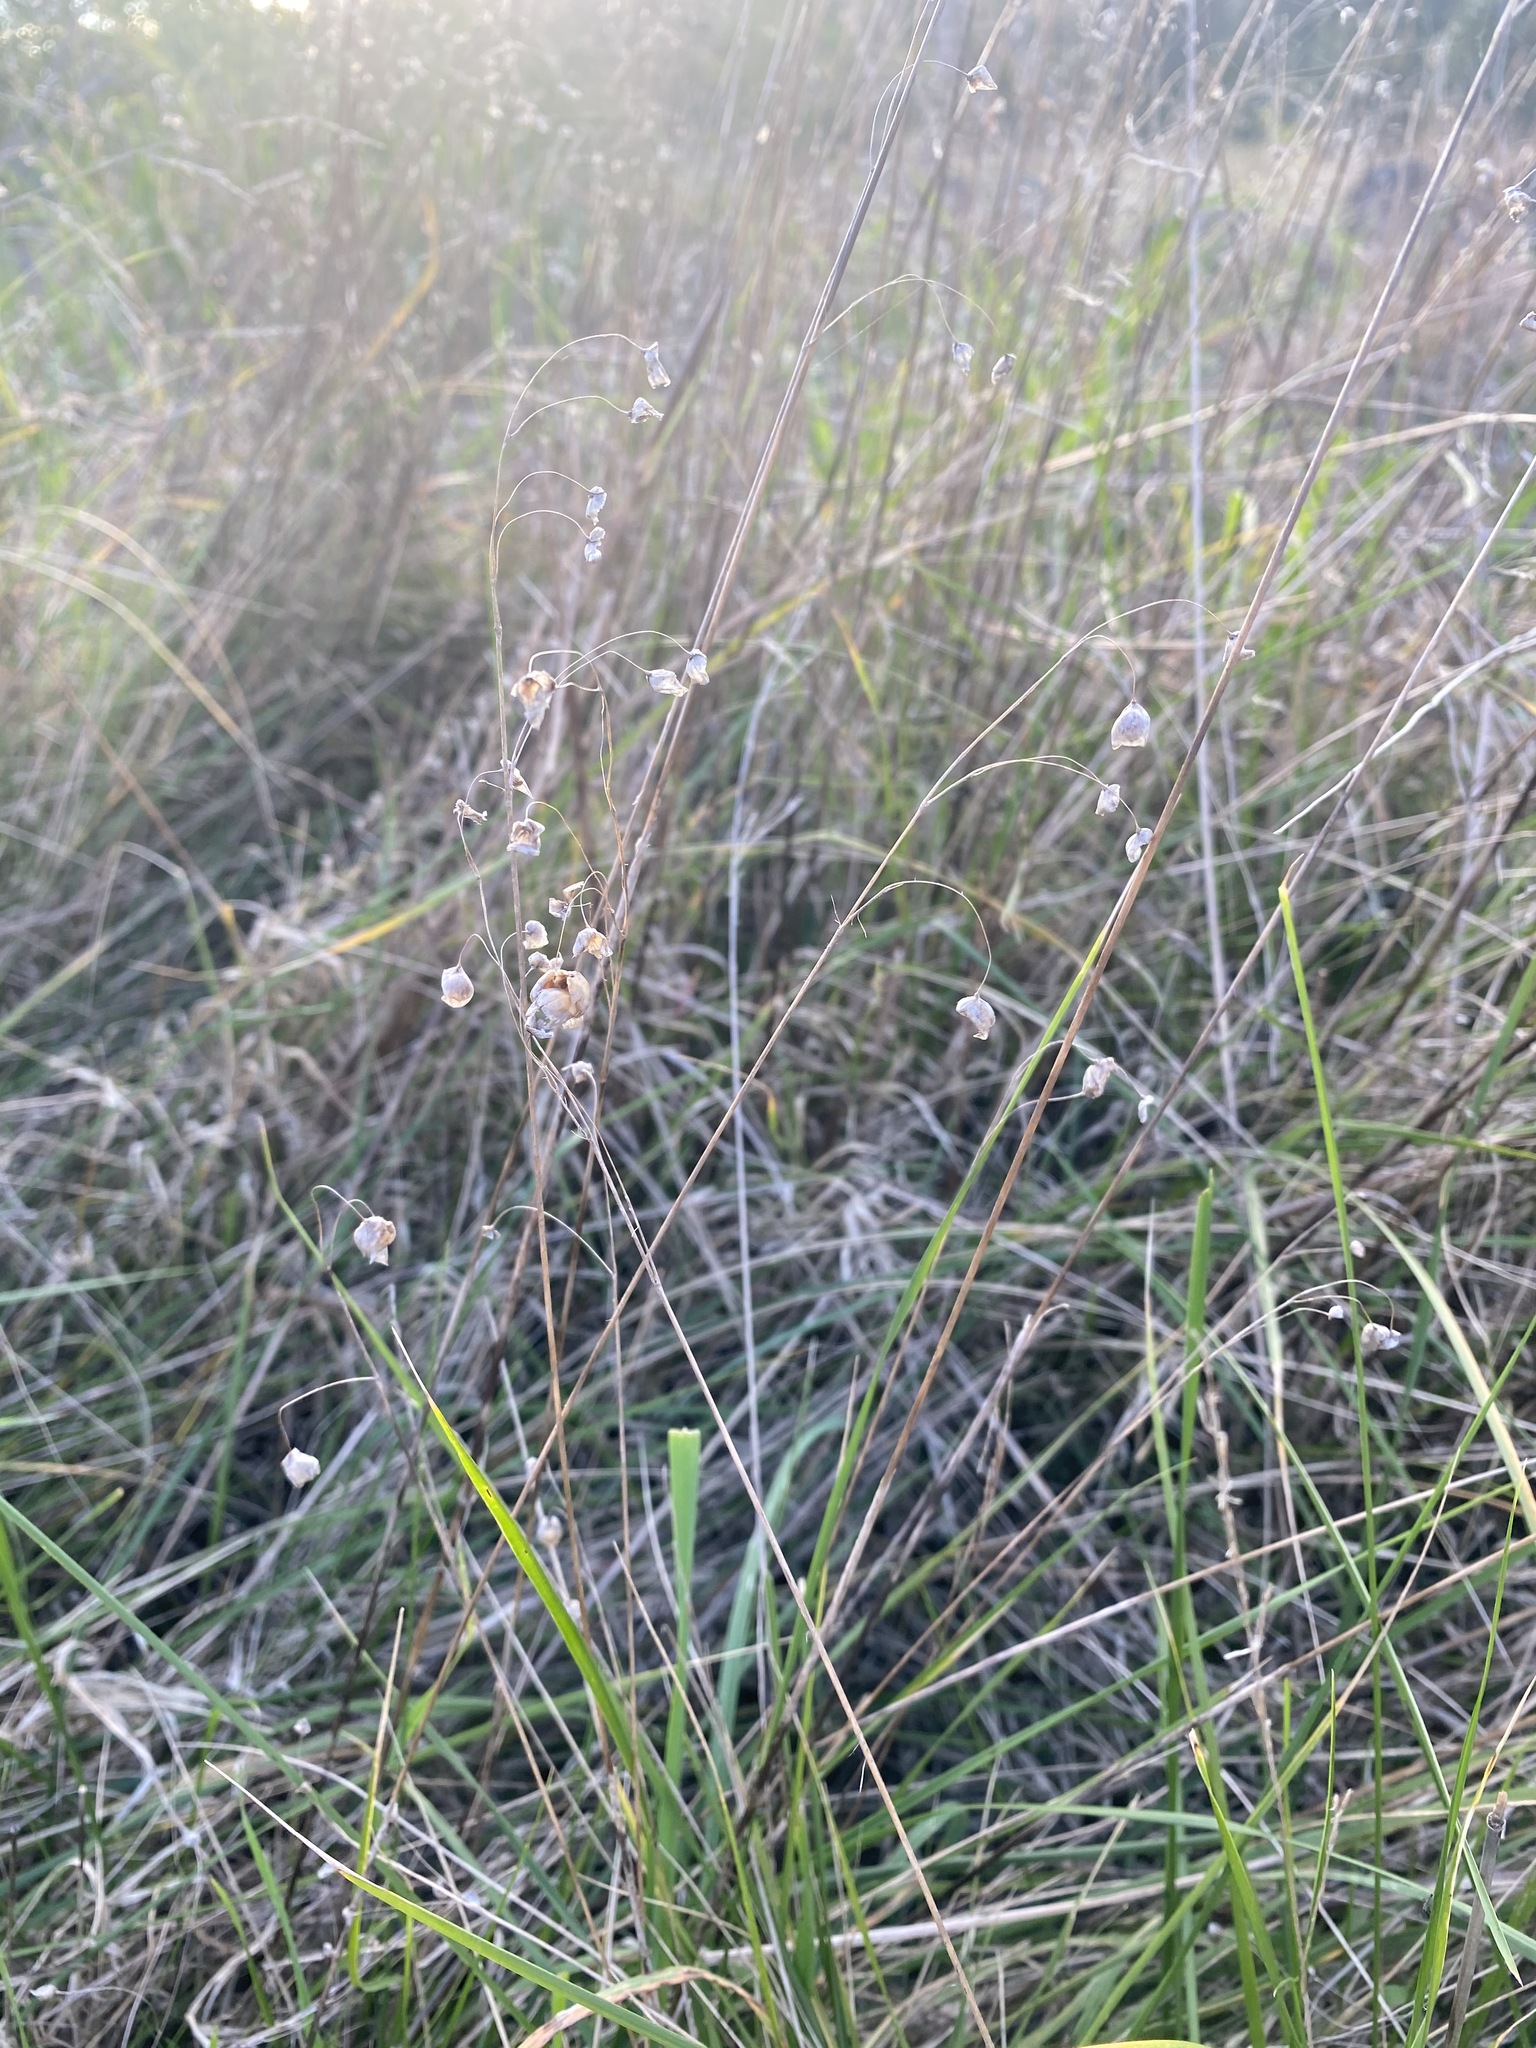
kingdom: Plantae
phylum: Tracheophyta
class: Liliopsida
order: Poales
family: Poaceae
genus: Briza
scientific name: Briza maxima
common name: Big quakinggrass
